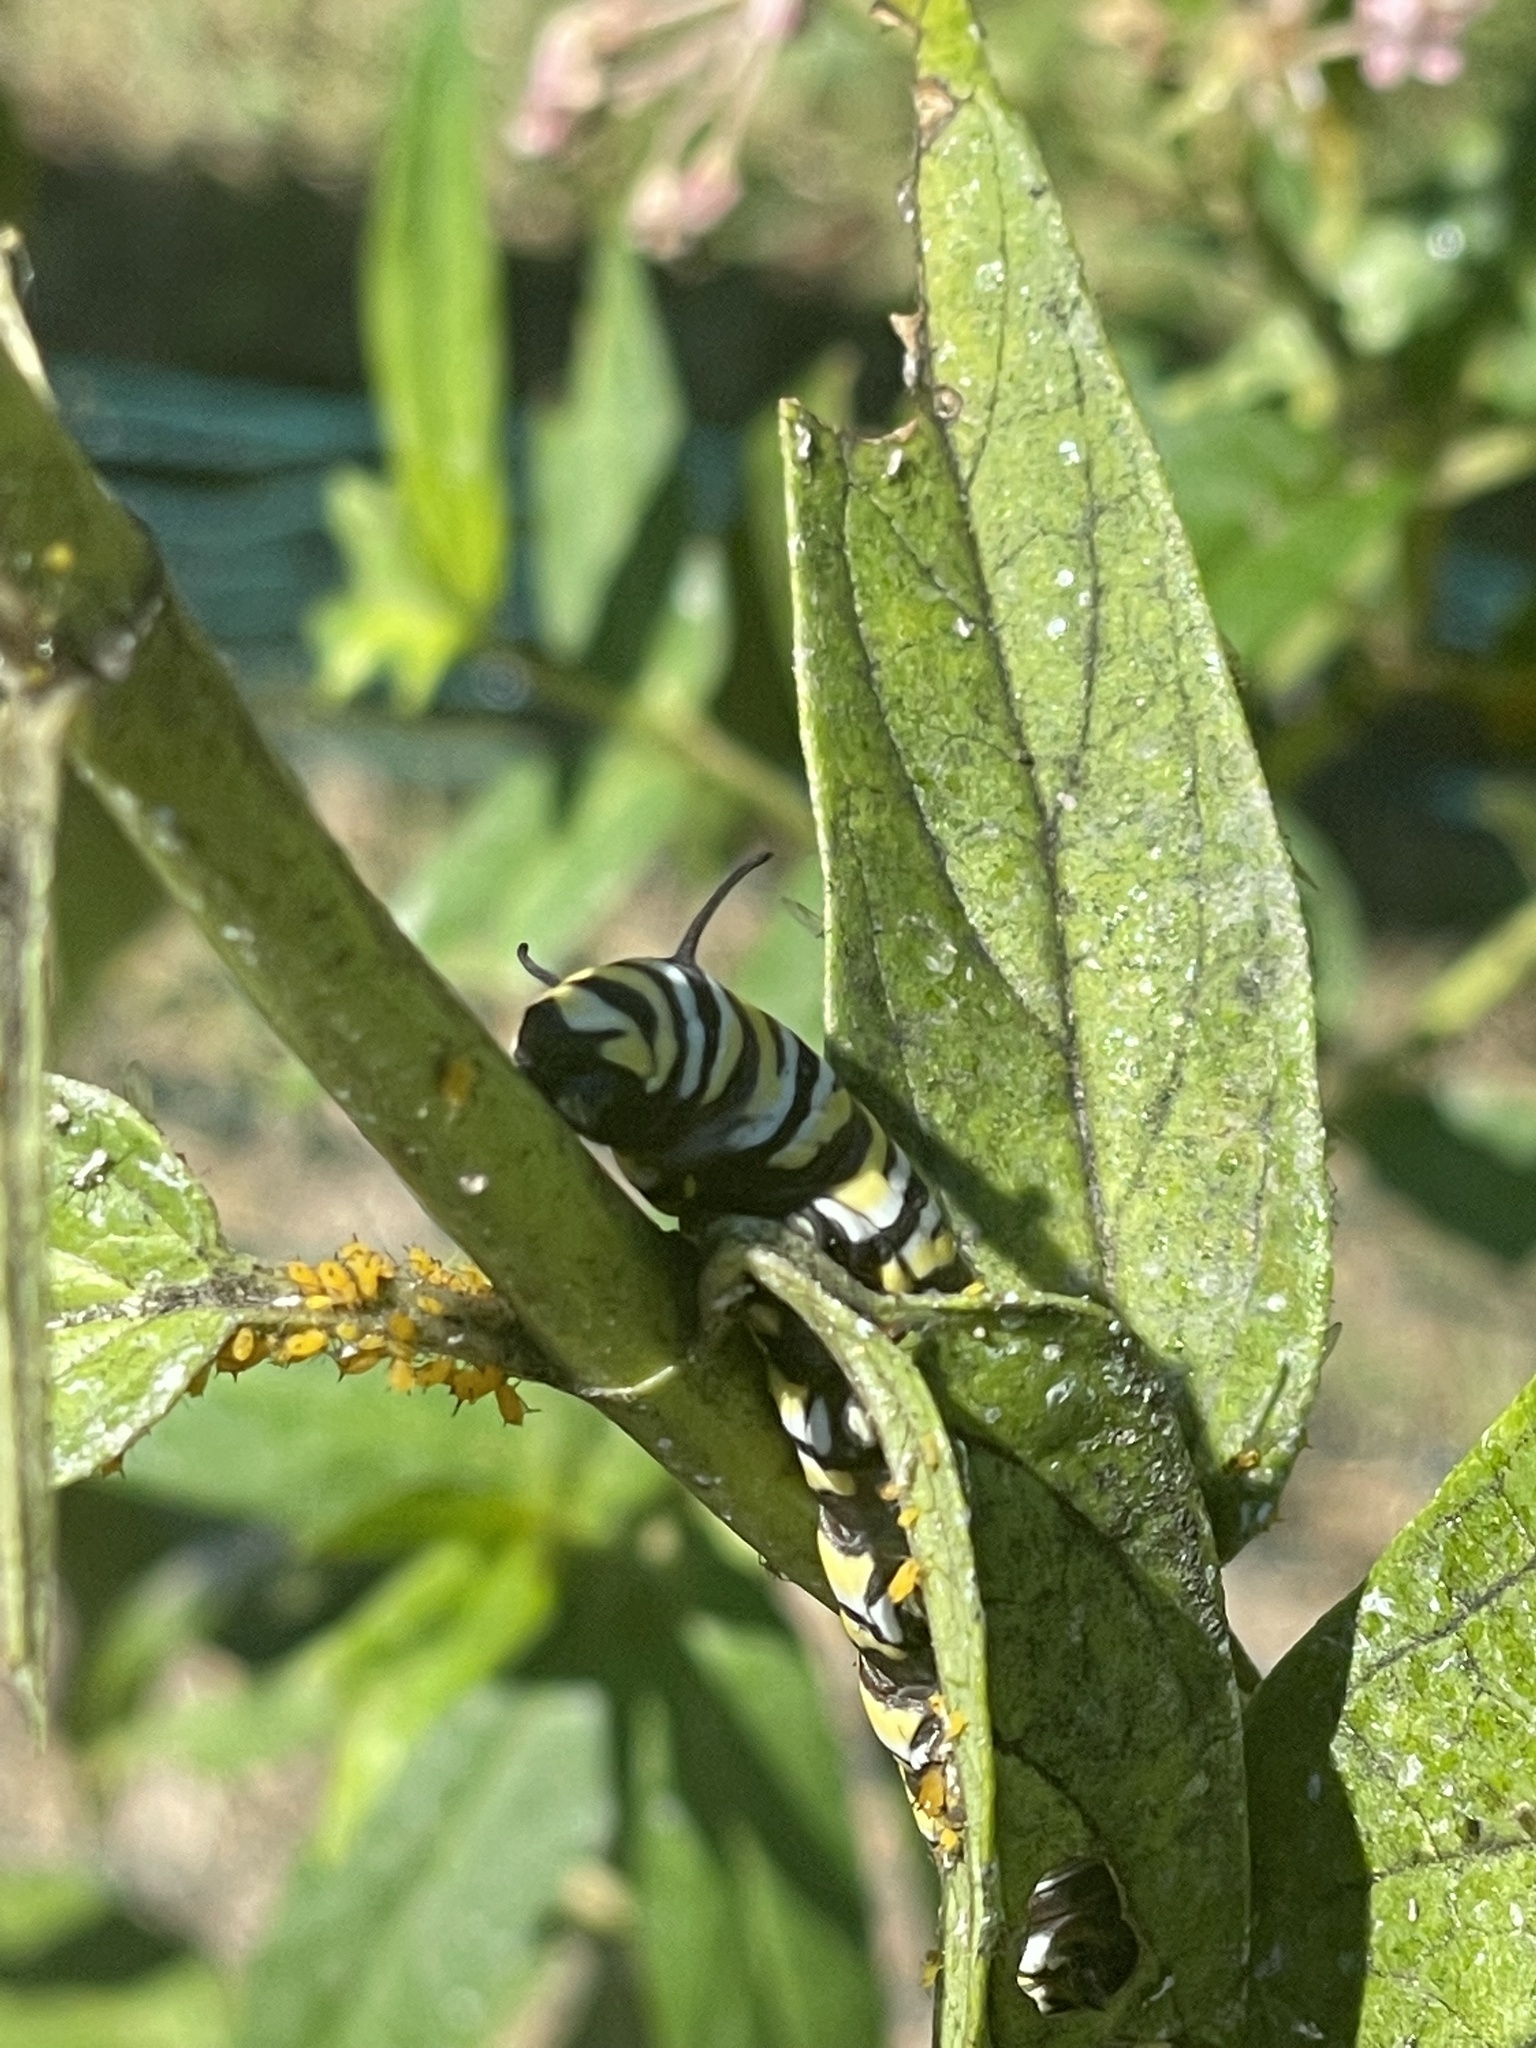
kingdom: Animalia
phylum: Arthropoda
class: Insecta
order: Lepidoptera
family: Nymphalidae
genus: Danaus
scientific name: Danaus plexippus
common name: Monarch
